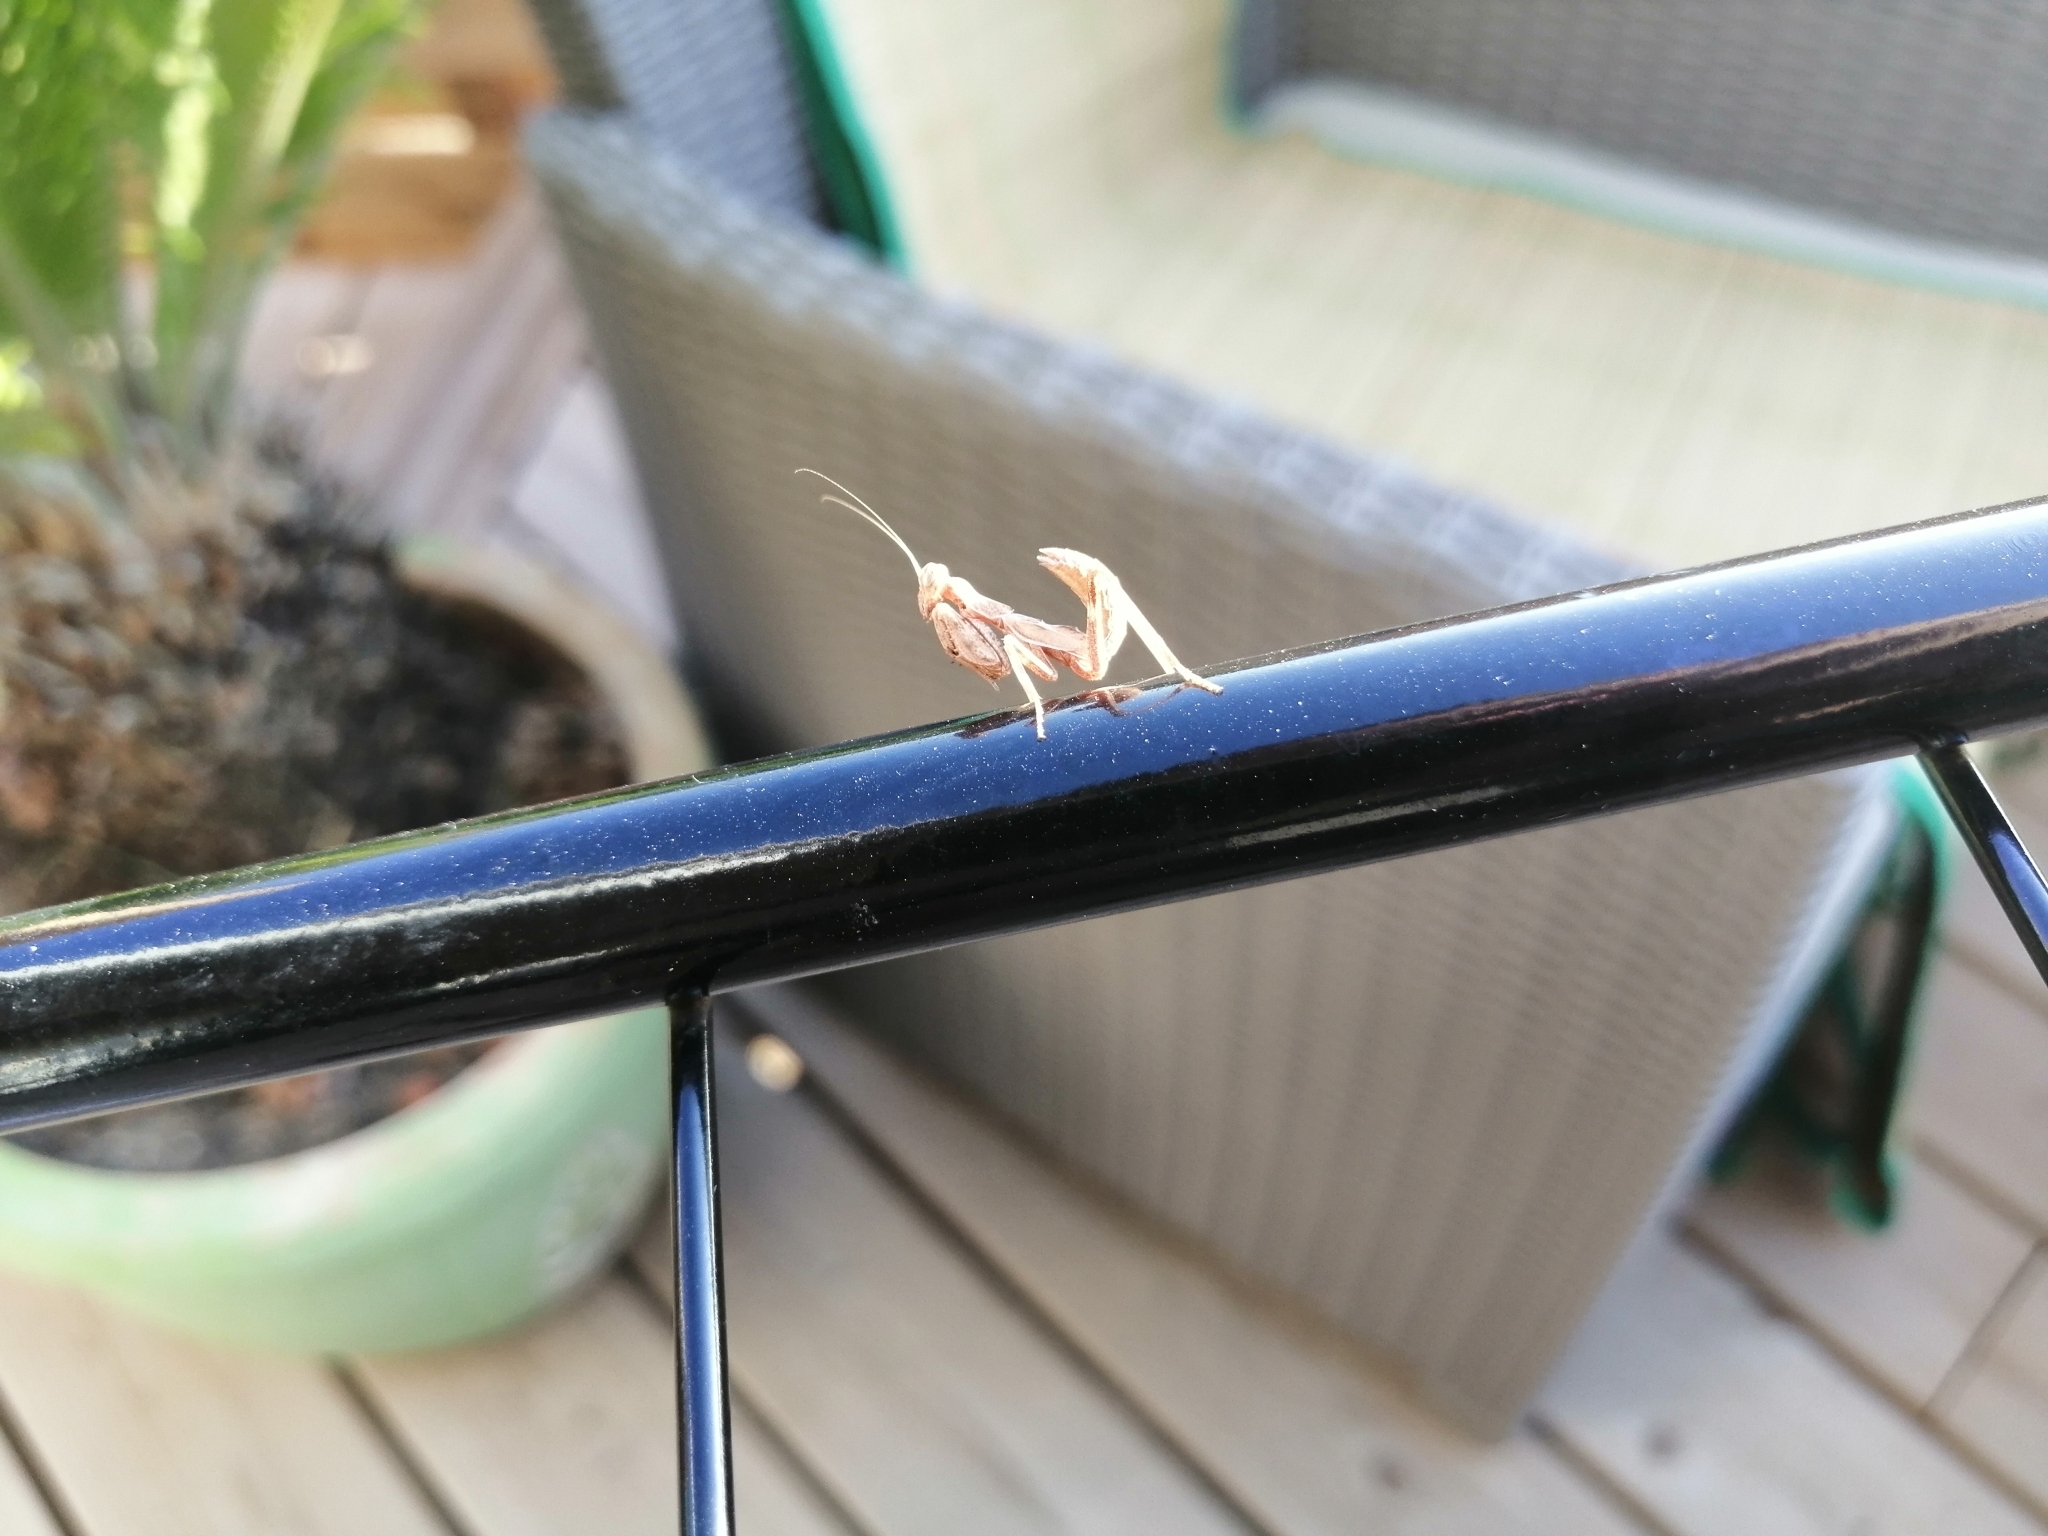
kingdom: Animalia
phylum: Arthropoda
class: Insecta
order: Mantodea
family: Amelidae
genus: Ameles
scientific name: Ameles spallanzania
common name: European dwarf mantis
